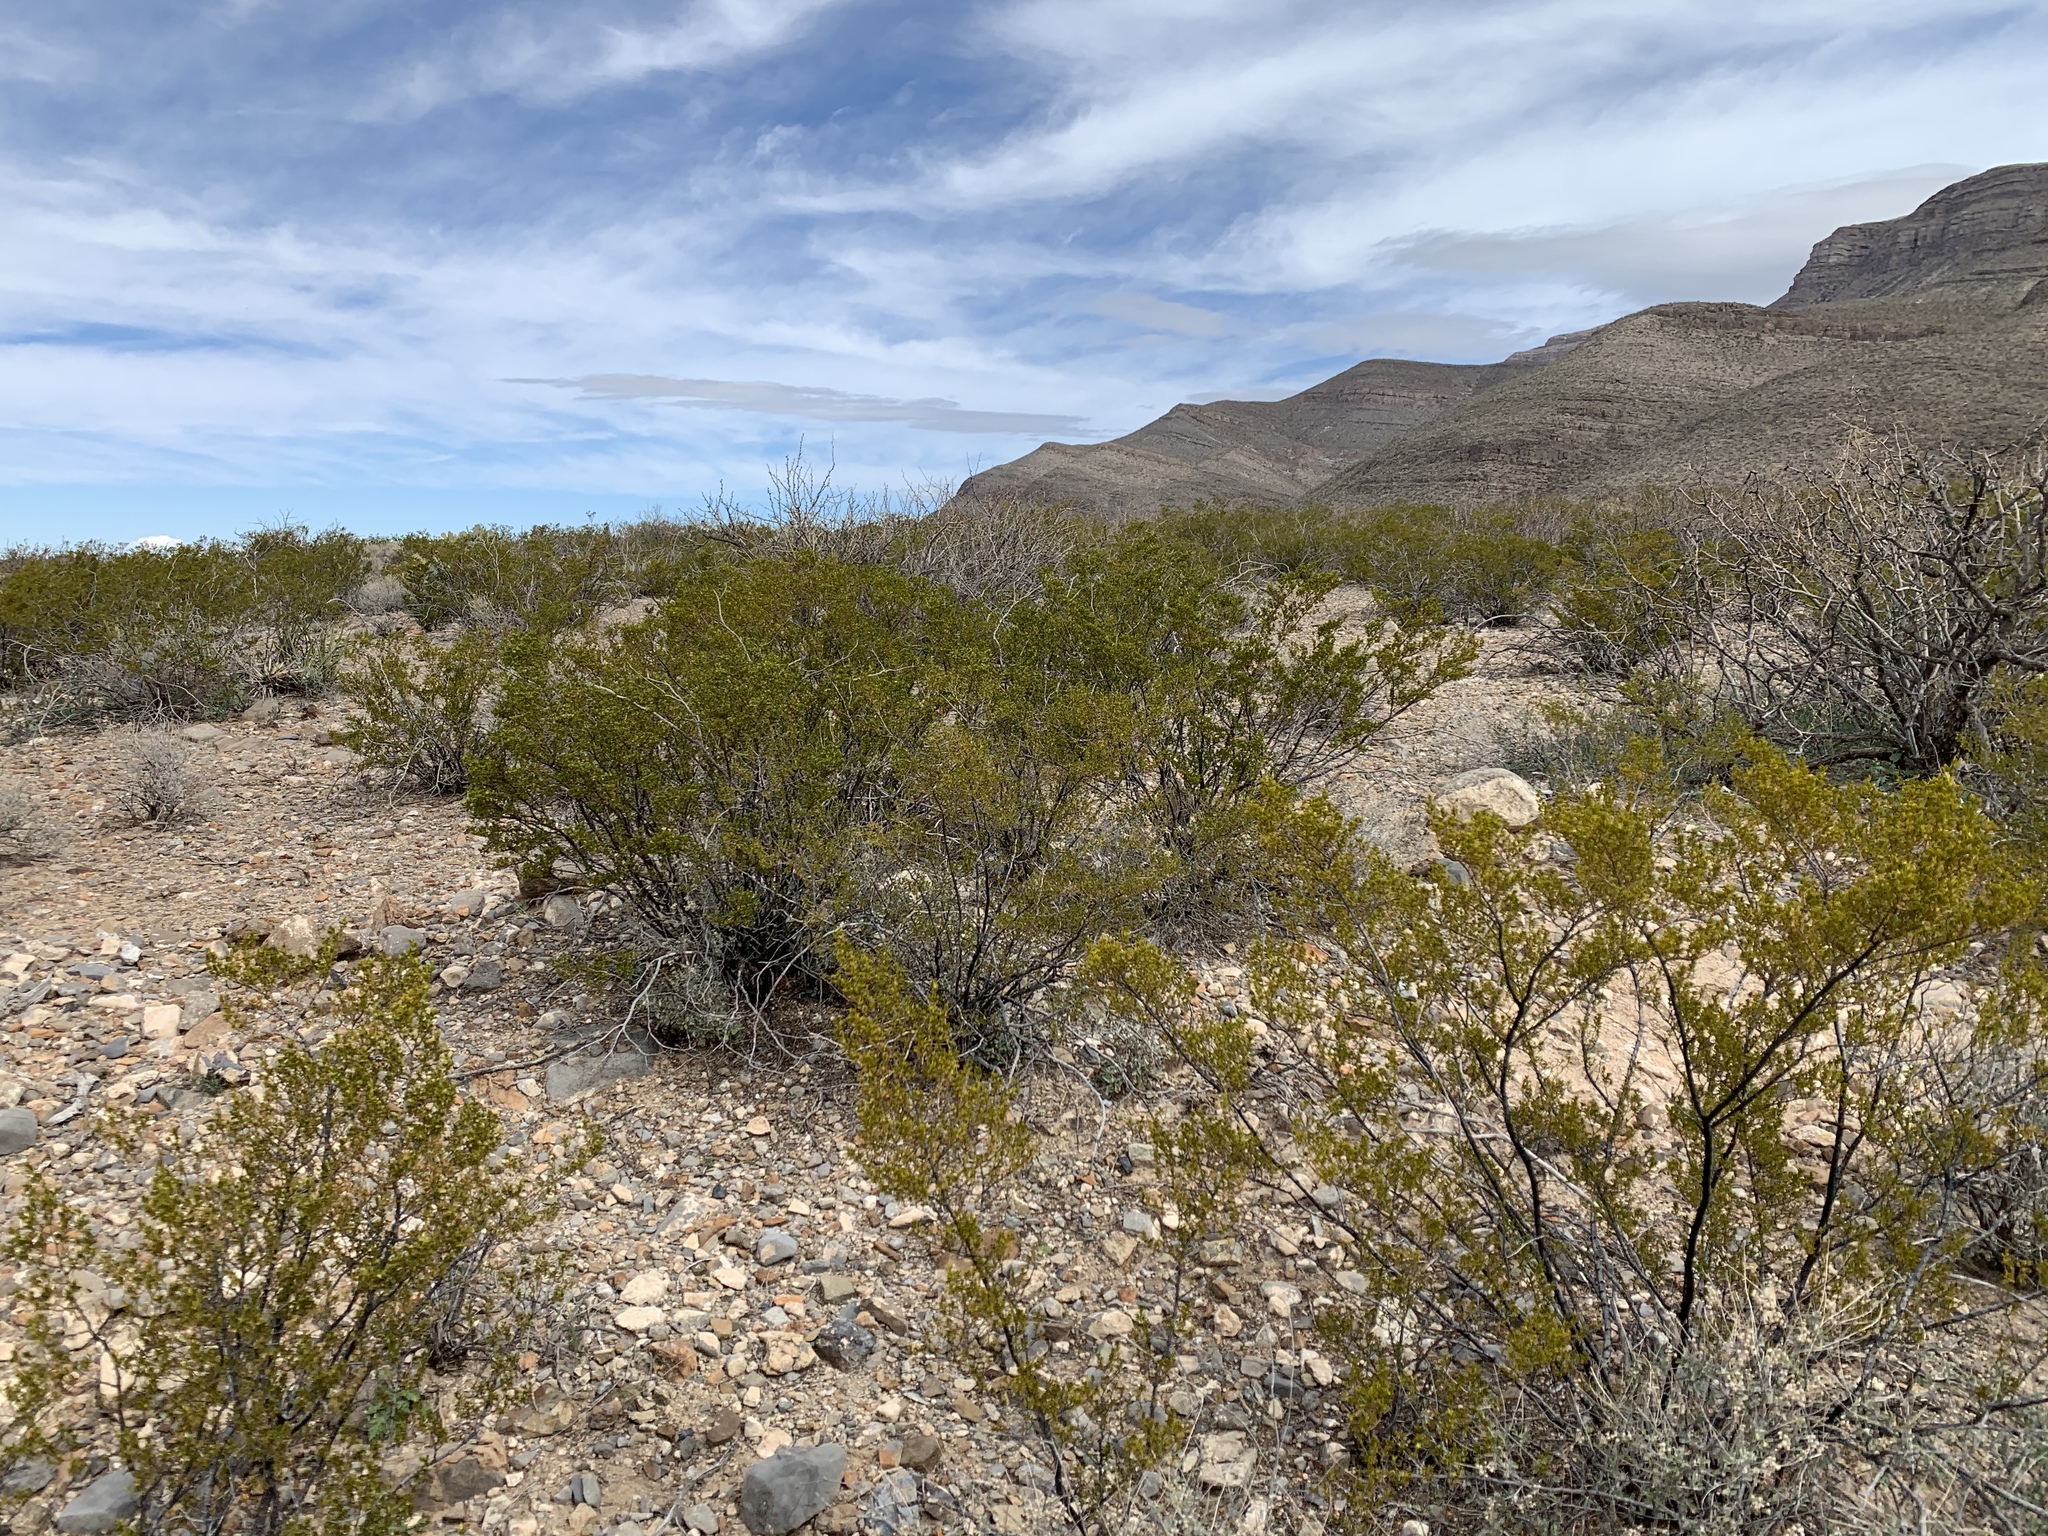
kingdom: Plantae
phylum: Tracheophyta
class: Magnoliopsida
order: Zygophyllales
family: Zygophyllaceae
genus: Larrea
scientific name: Larrea tridentata
